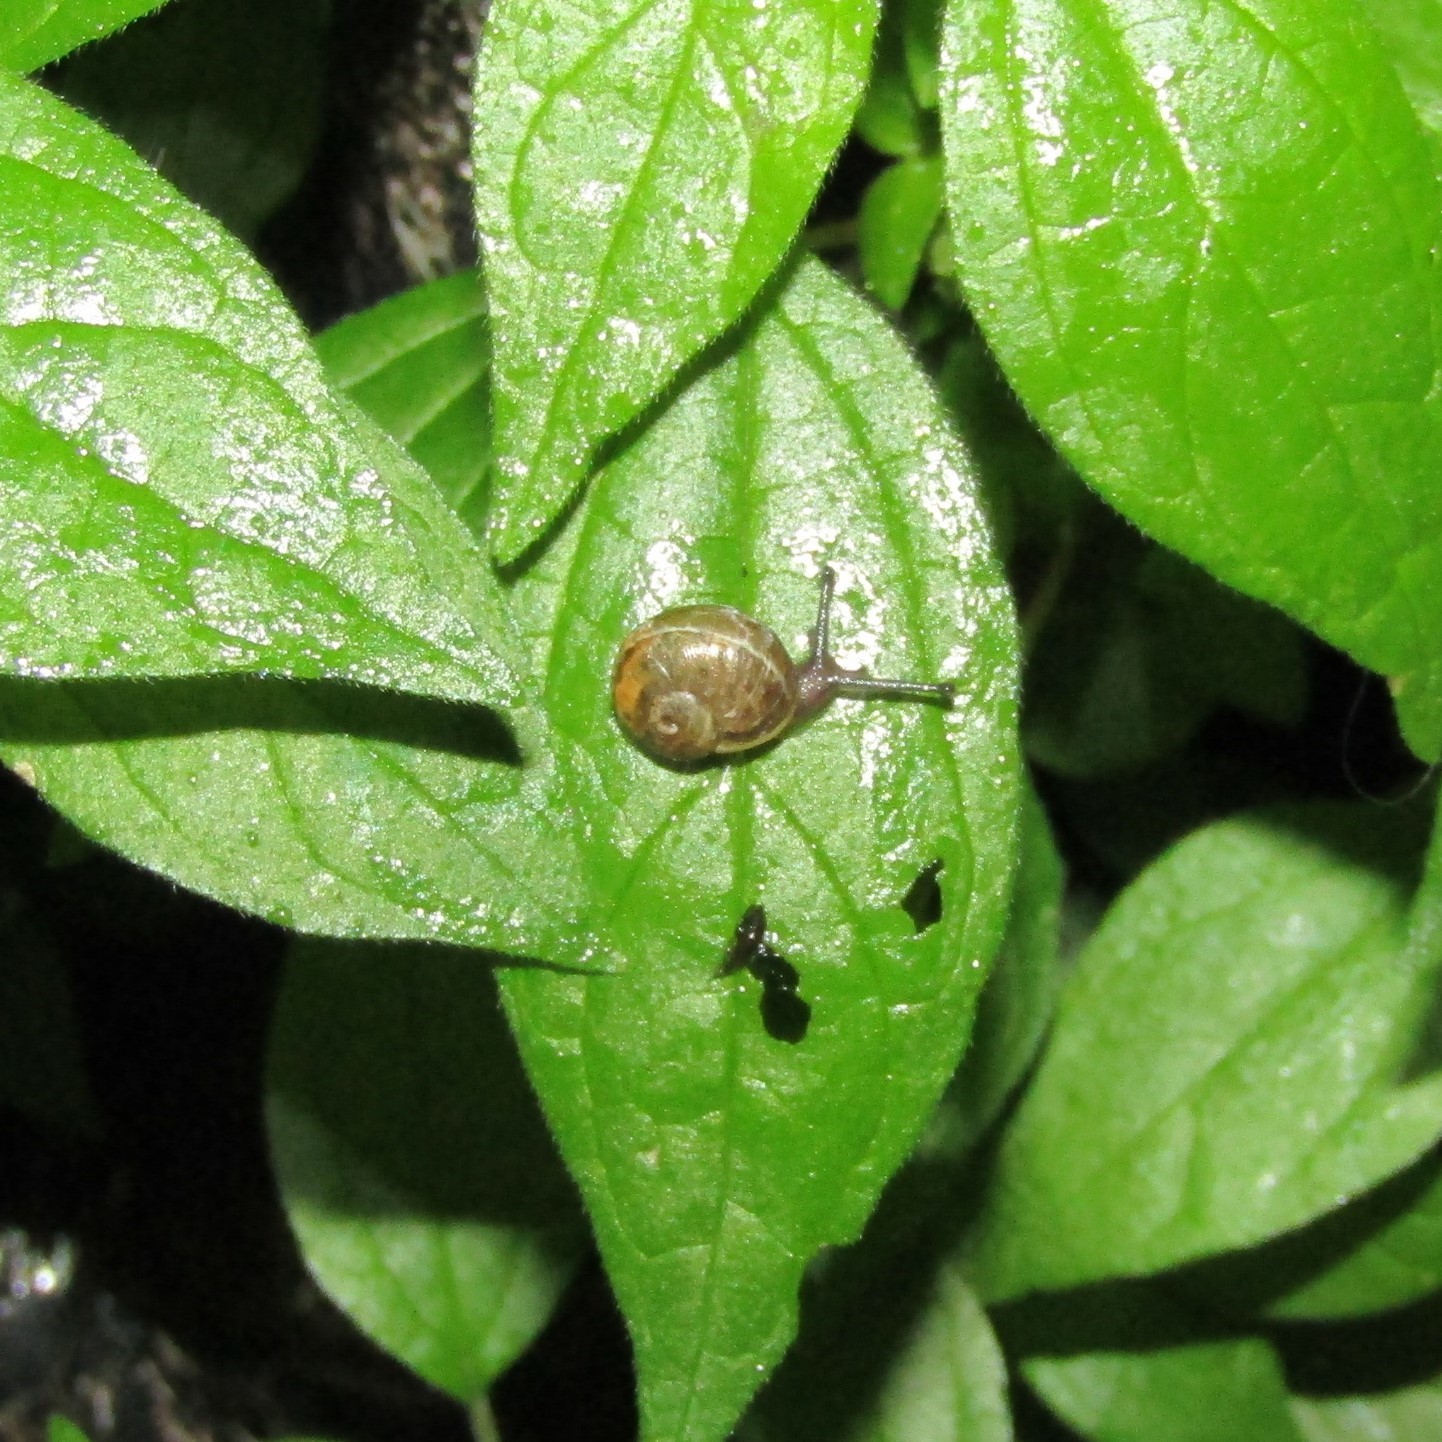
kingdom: Animalia
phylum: Mollusca
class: Gastropoda
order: Stylommatophora
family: Helicidae
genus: Cornu
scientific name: Cornu aspersum
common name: Brown garden snail
